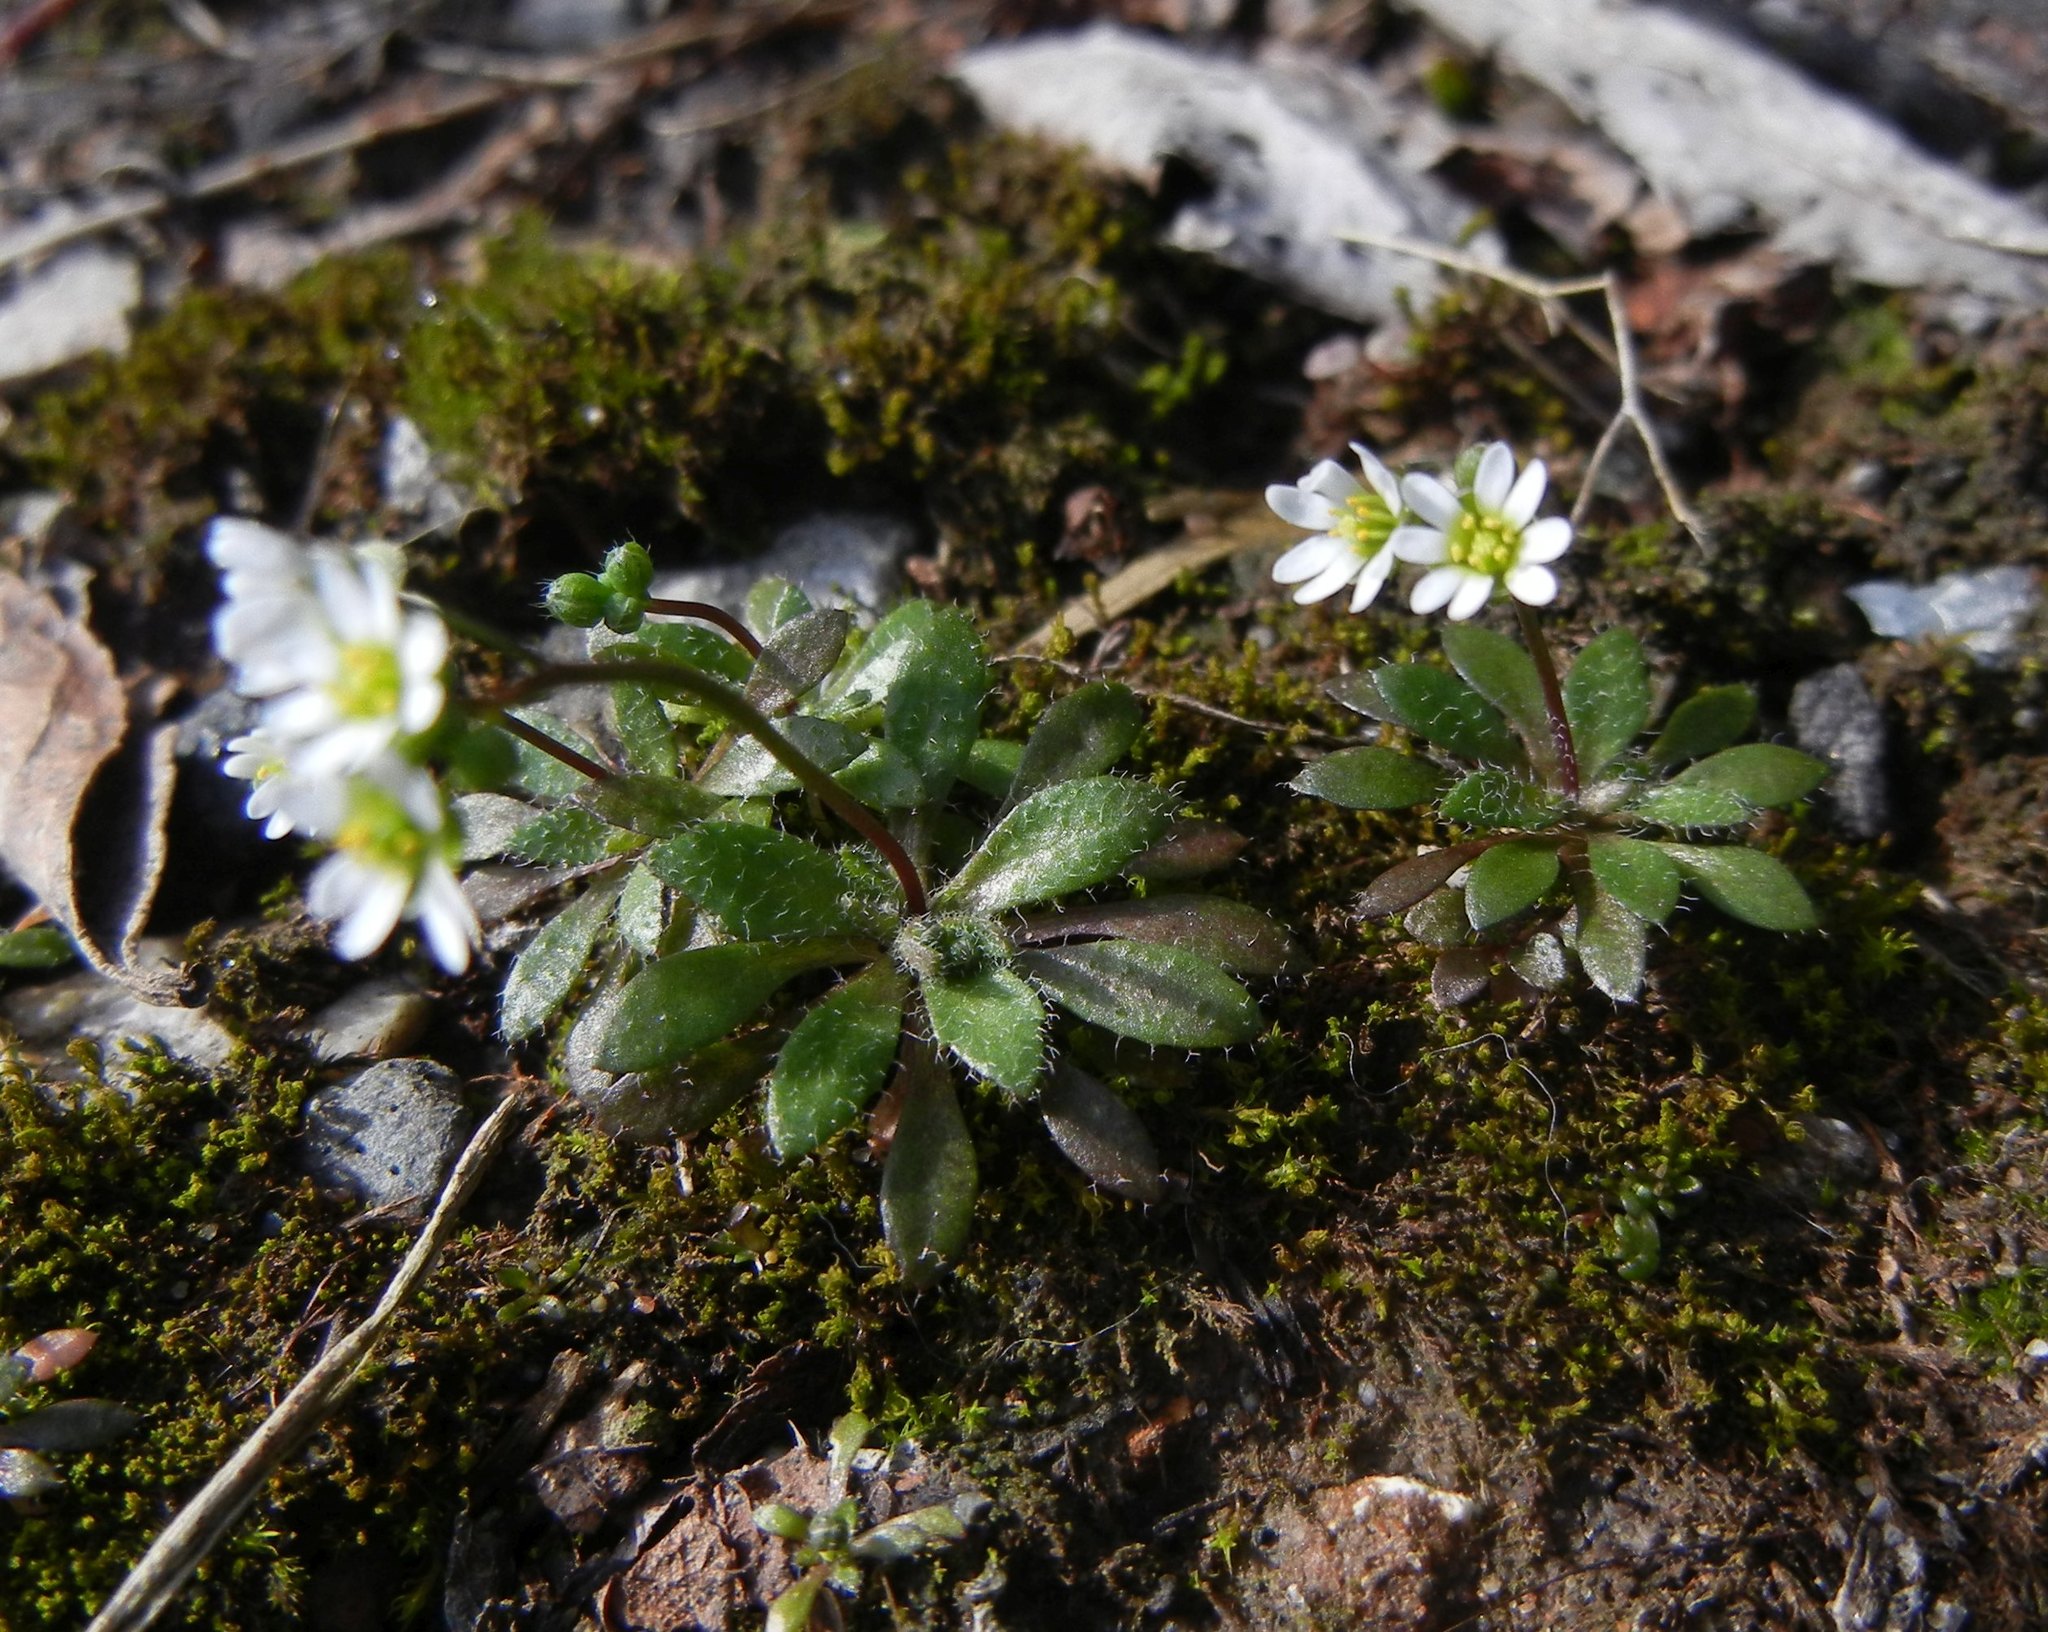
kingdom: Plantae
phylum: Tracheophyta
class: Magnoliopsida
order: Brassicales
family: Brassicaceae
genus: Draba
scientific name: Draba verna
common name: Spring draba
